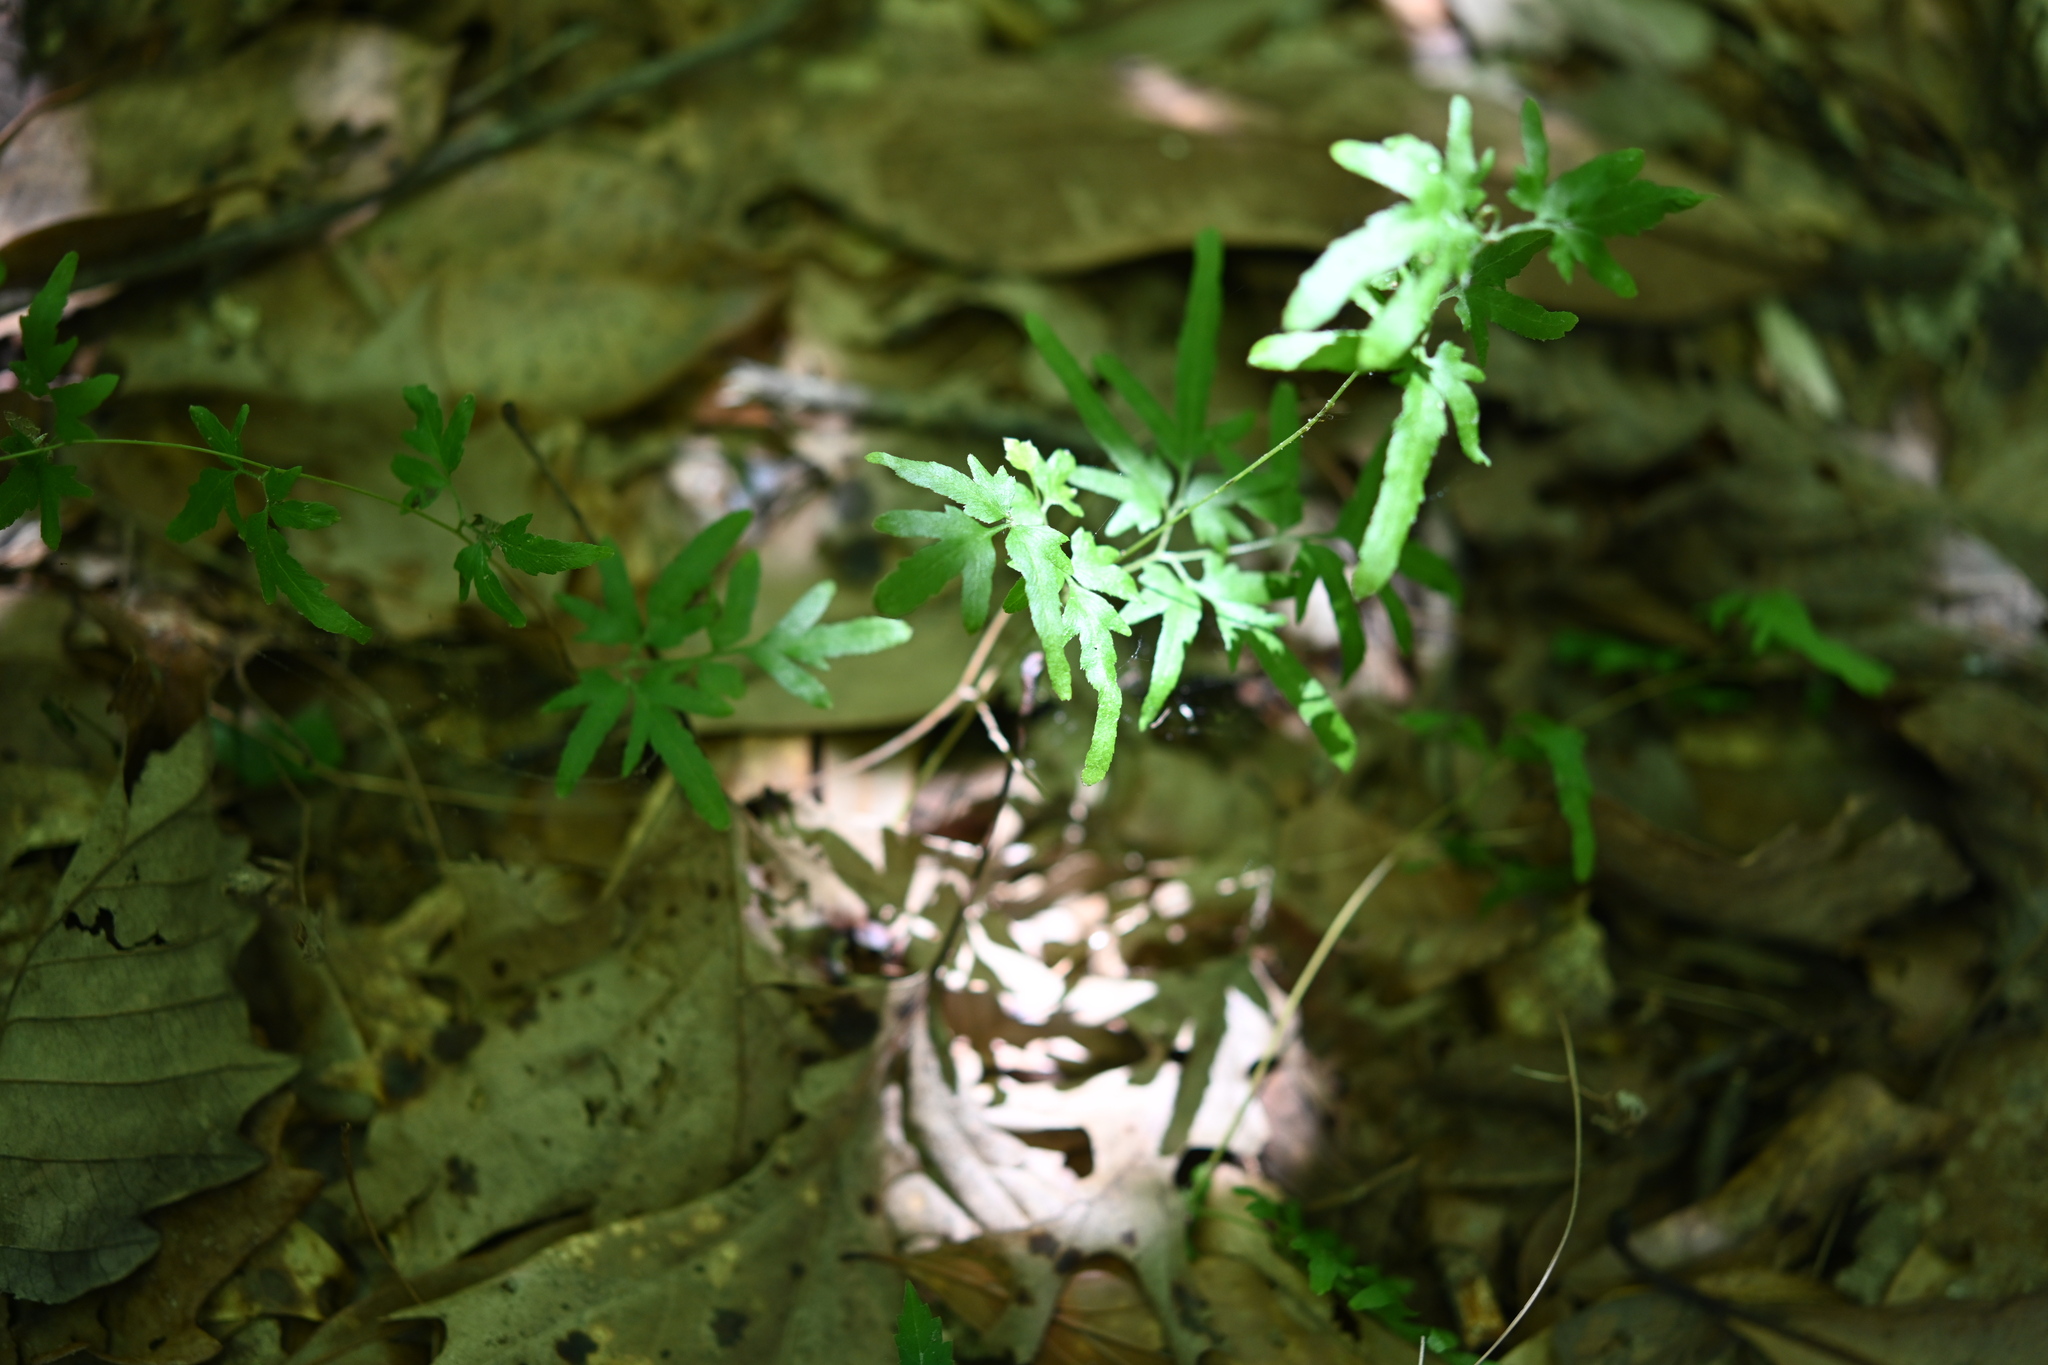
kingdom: Plantae
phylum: Tracheophyta
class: Polypodiopsida
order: Schizaeales
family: Lygodiaceae
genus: Lygodium
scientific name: Lygodium japonicum
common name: Japanese climbing fern
